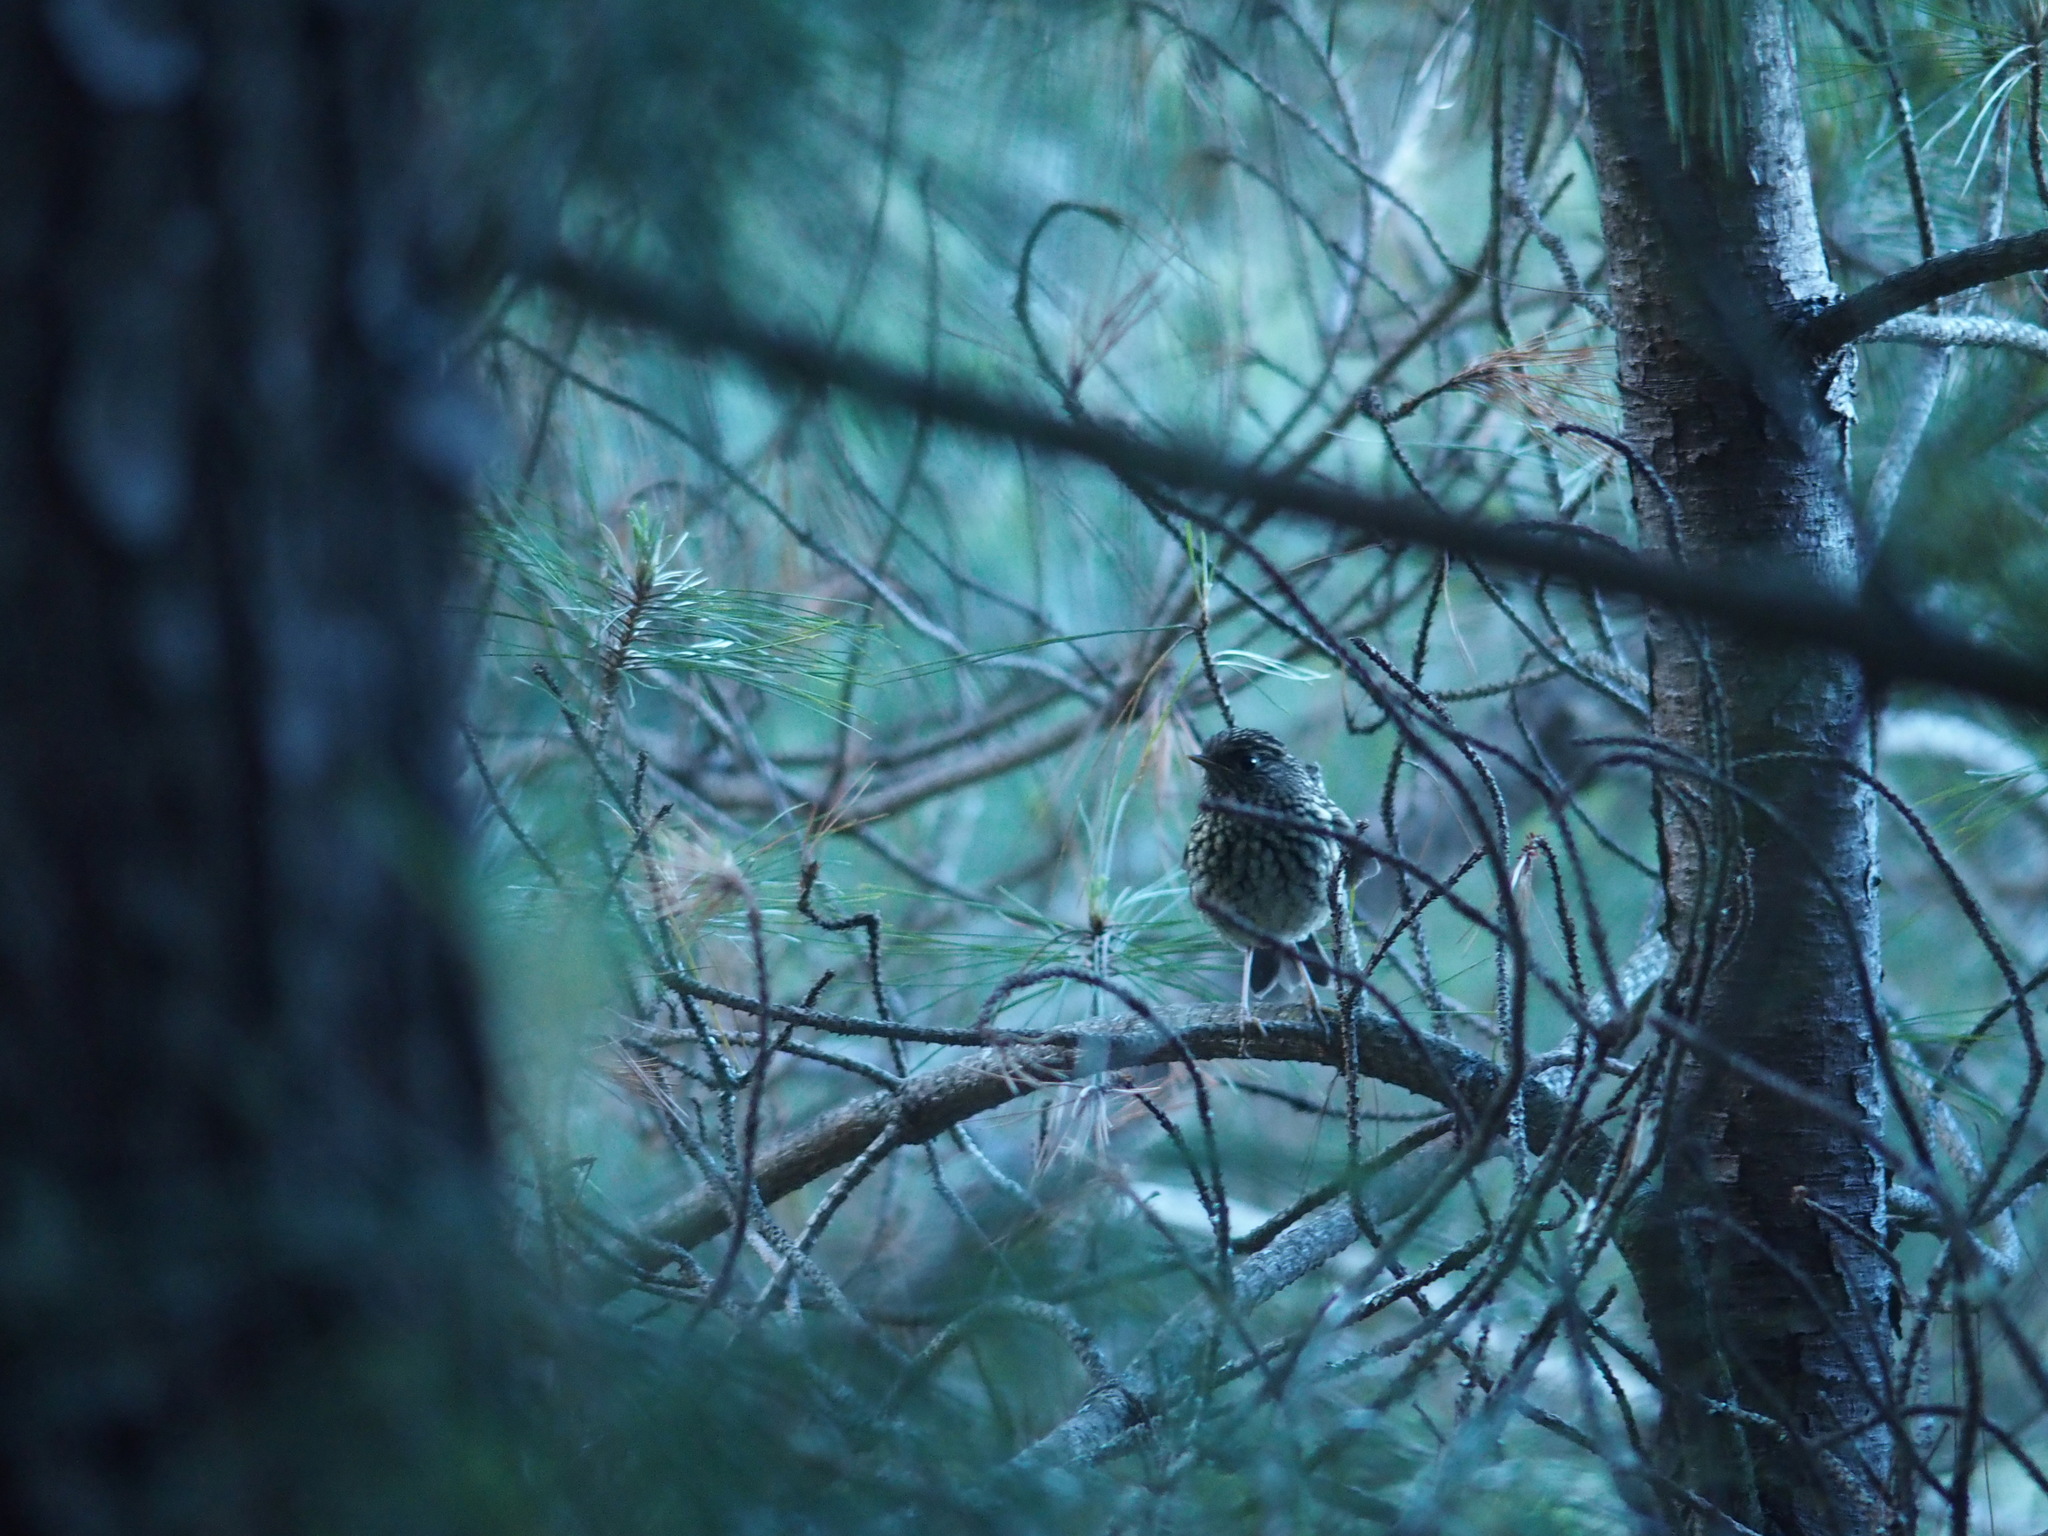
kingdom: Animalia
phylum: Chordata
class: Aves
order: Passeriformes
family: Muscicapidae
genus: Tarsiger
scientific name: Tarsiger indicus
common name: White-browed bush robin
